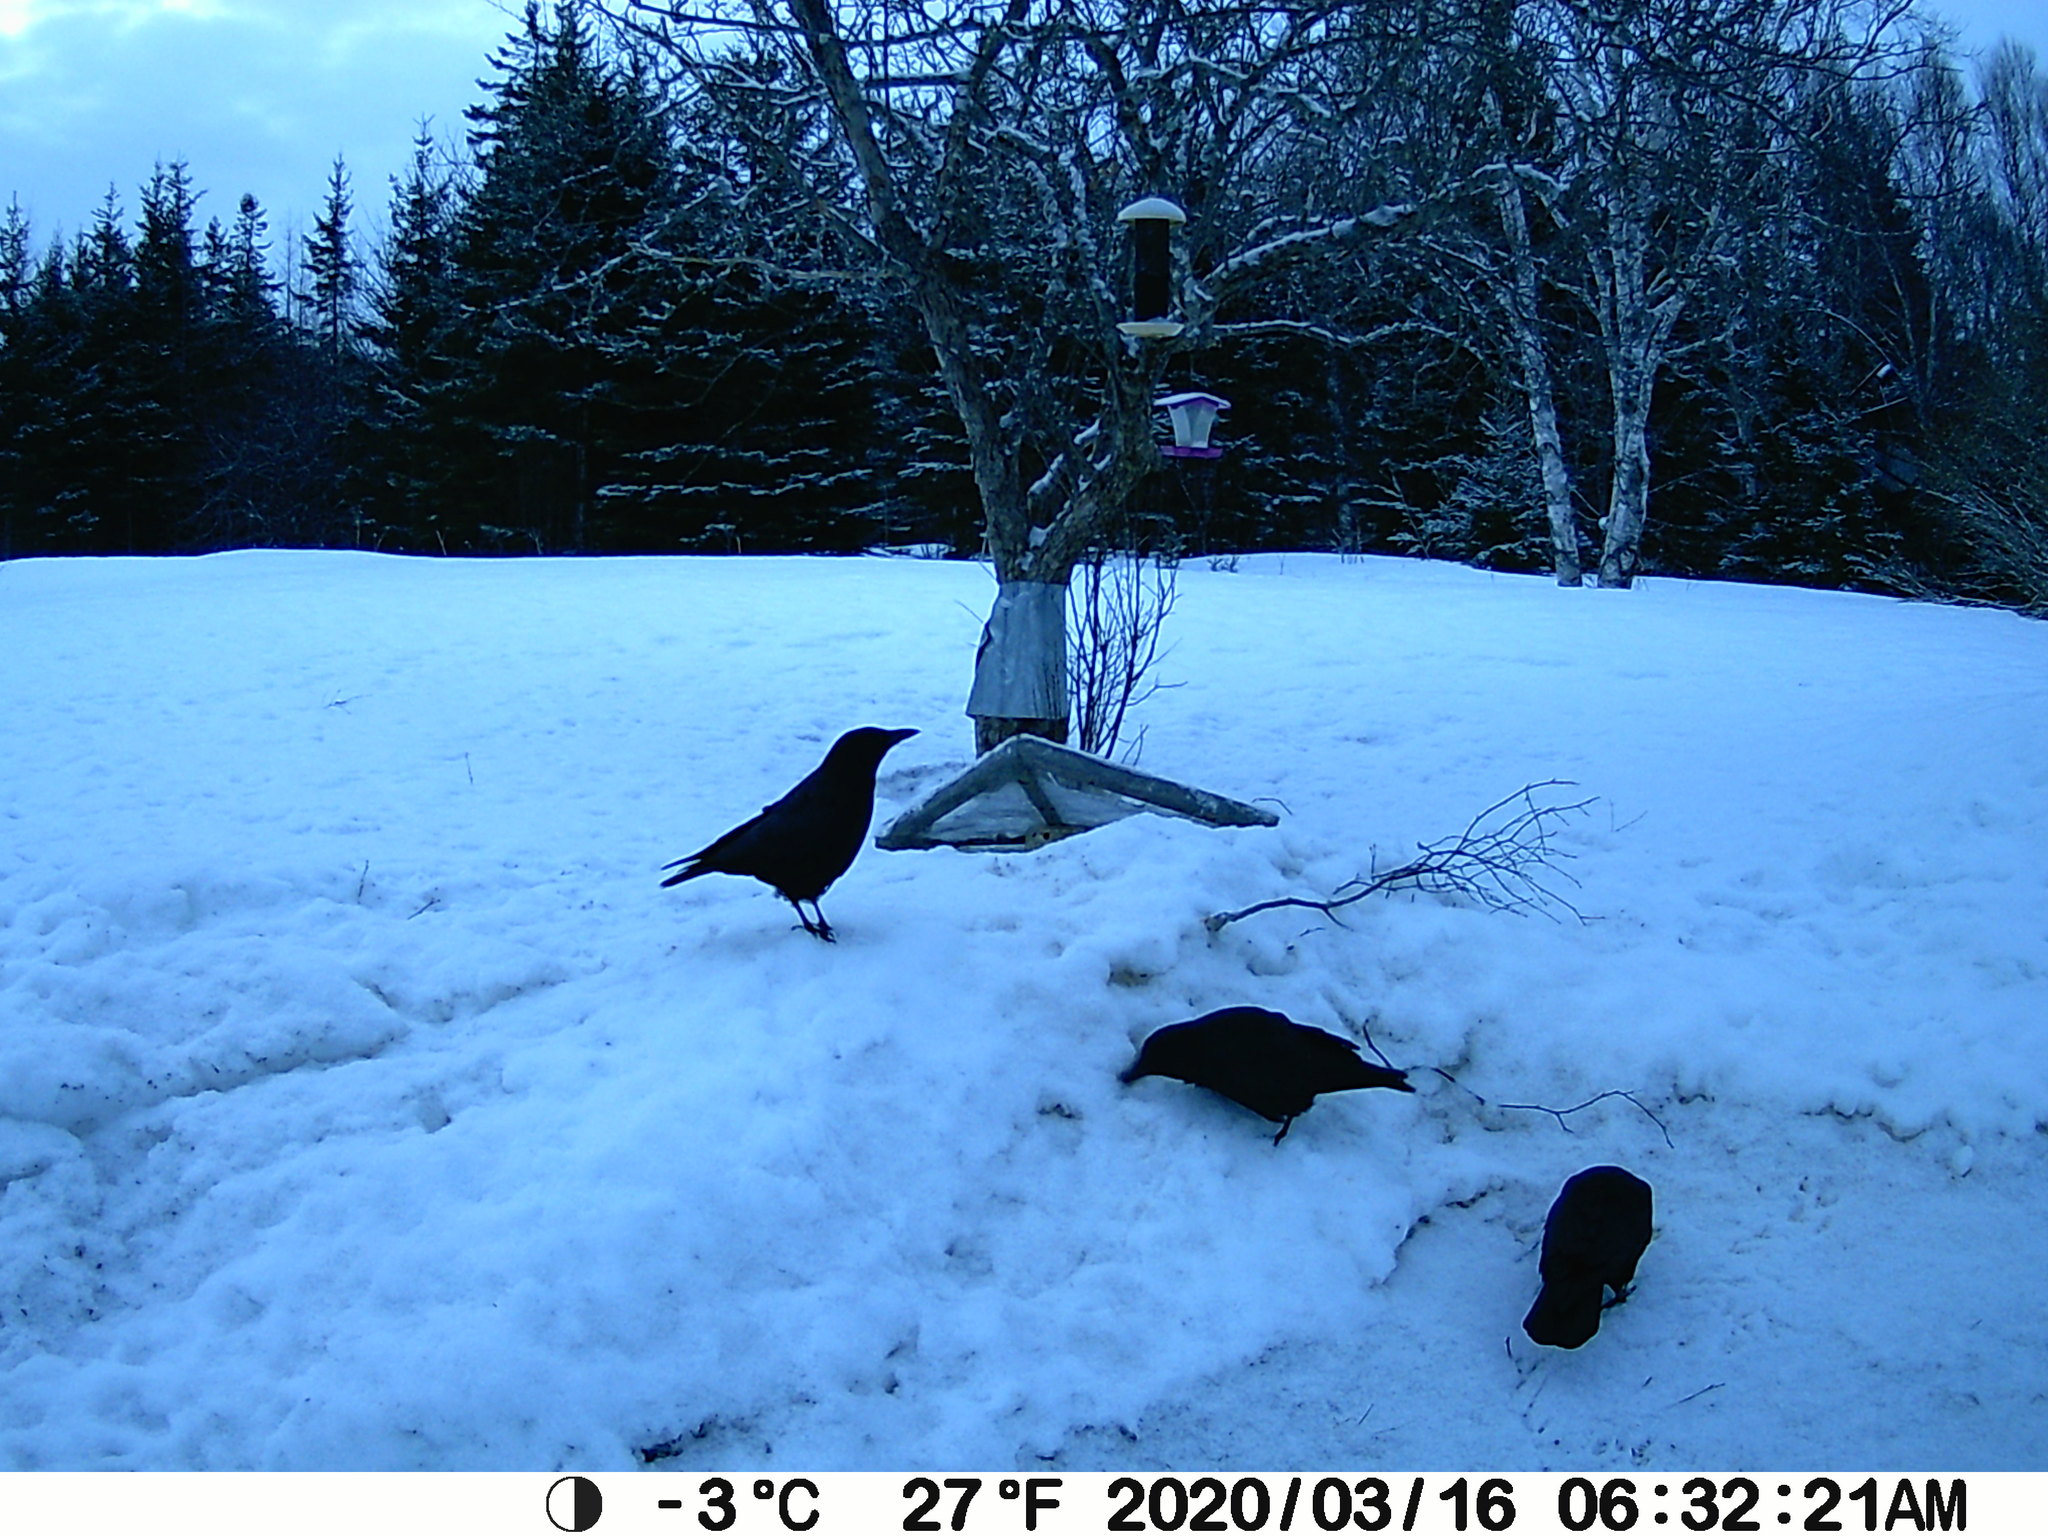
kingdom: Animalia
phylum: Chordata
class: Aves
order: Passeriformes
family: Corvidae
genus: Corvus
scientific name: Corvus brachyrhynchos
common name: American crow
